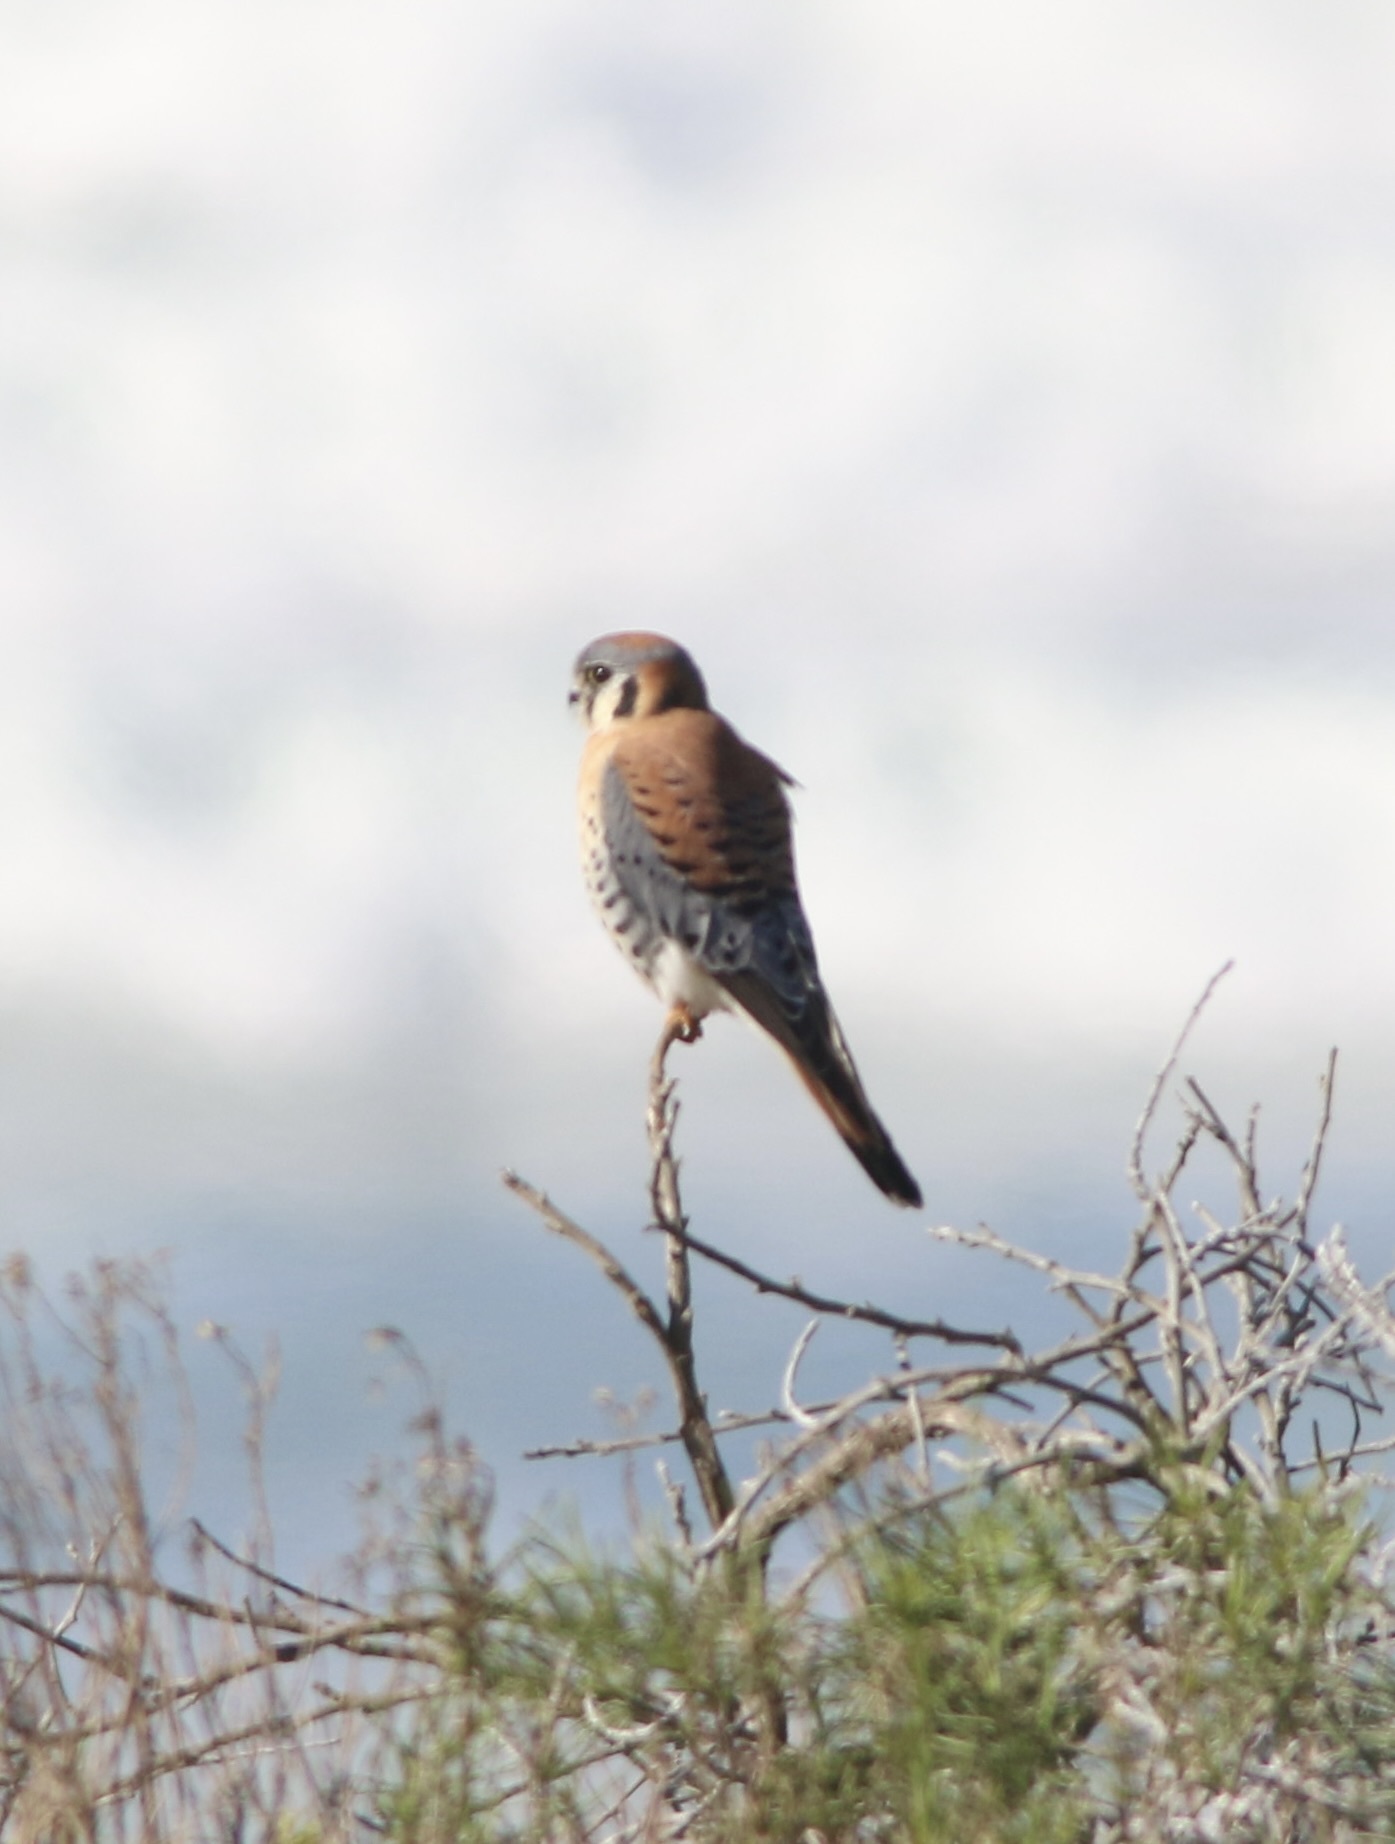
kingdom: Animalia
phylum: Chordata
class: Aves
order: Falconiformes
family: Falconidae
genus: Falco
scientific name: Falco sparverius
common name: American kestrel
